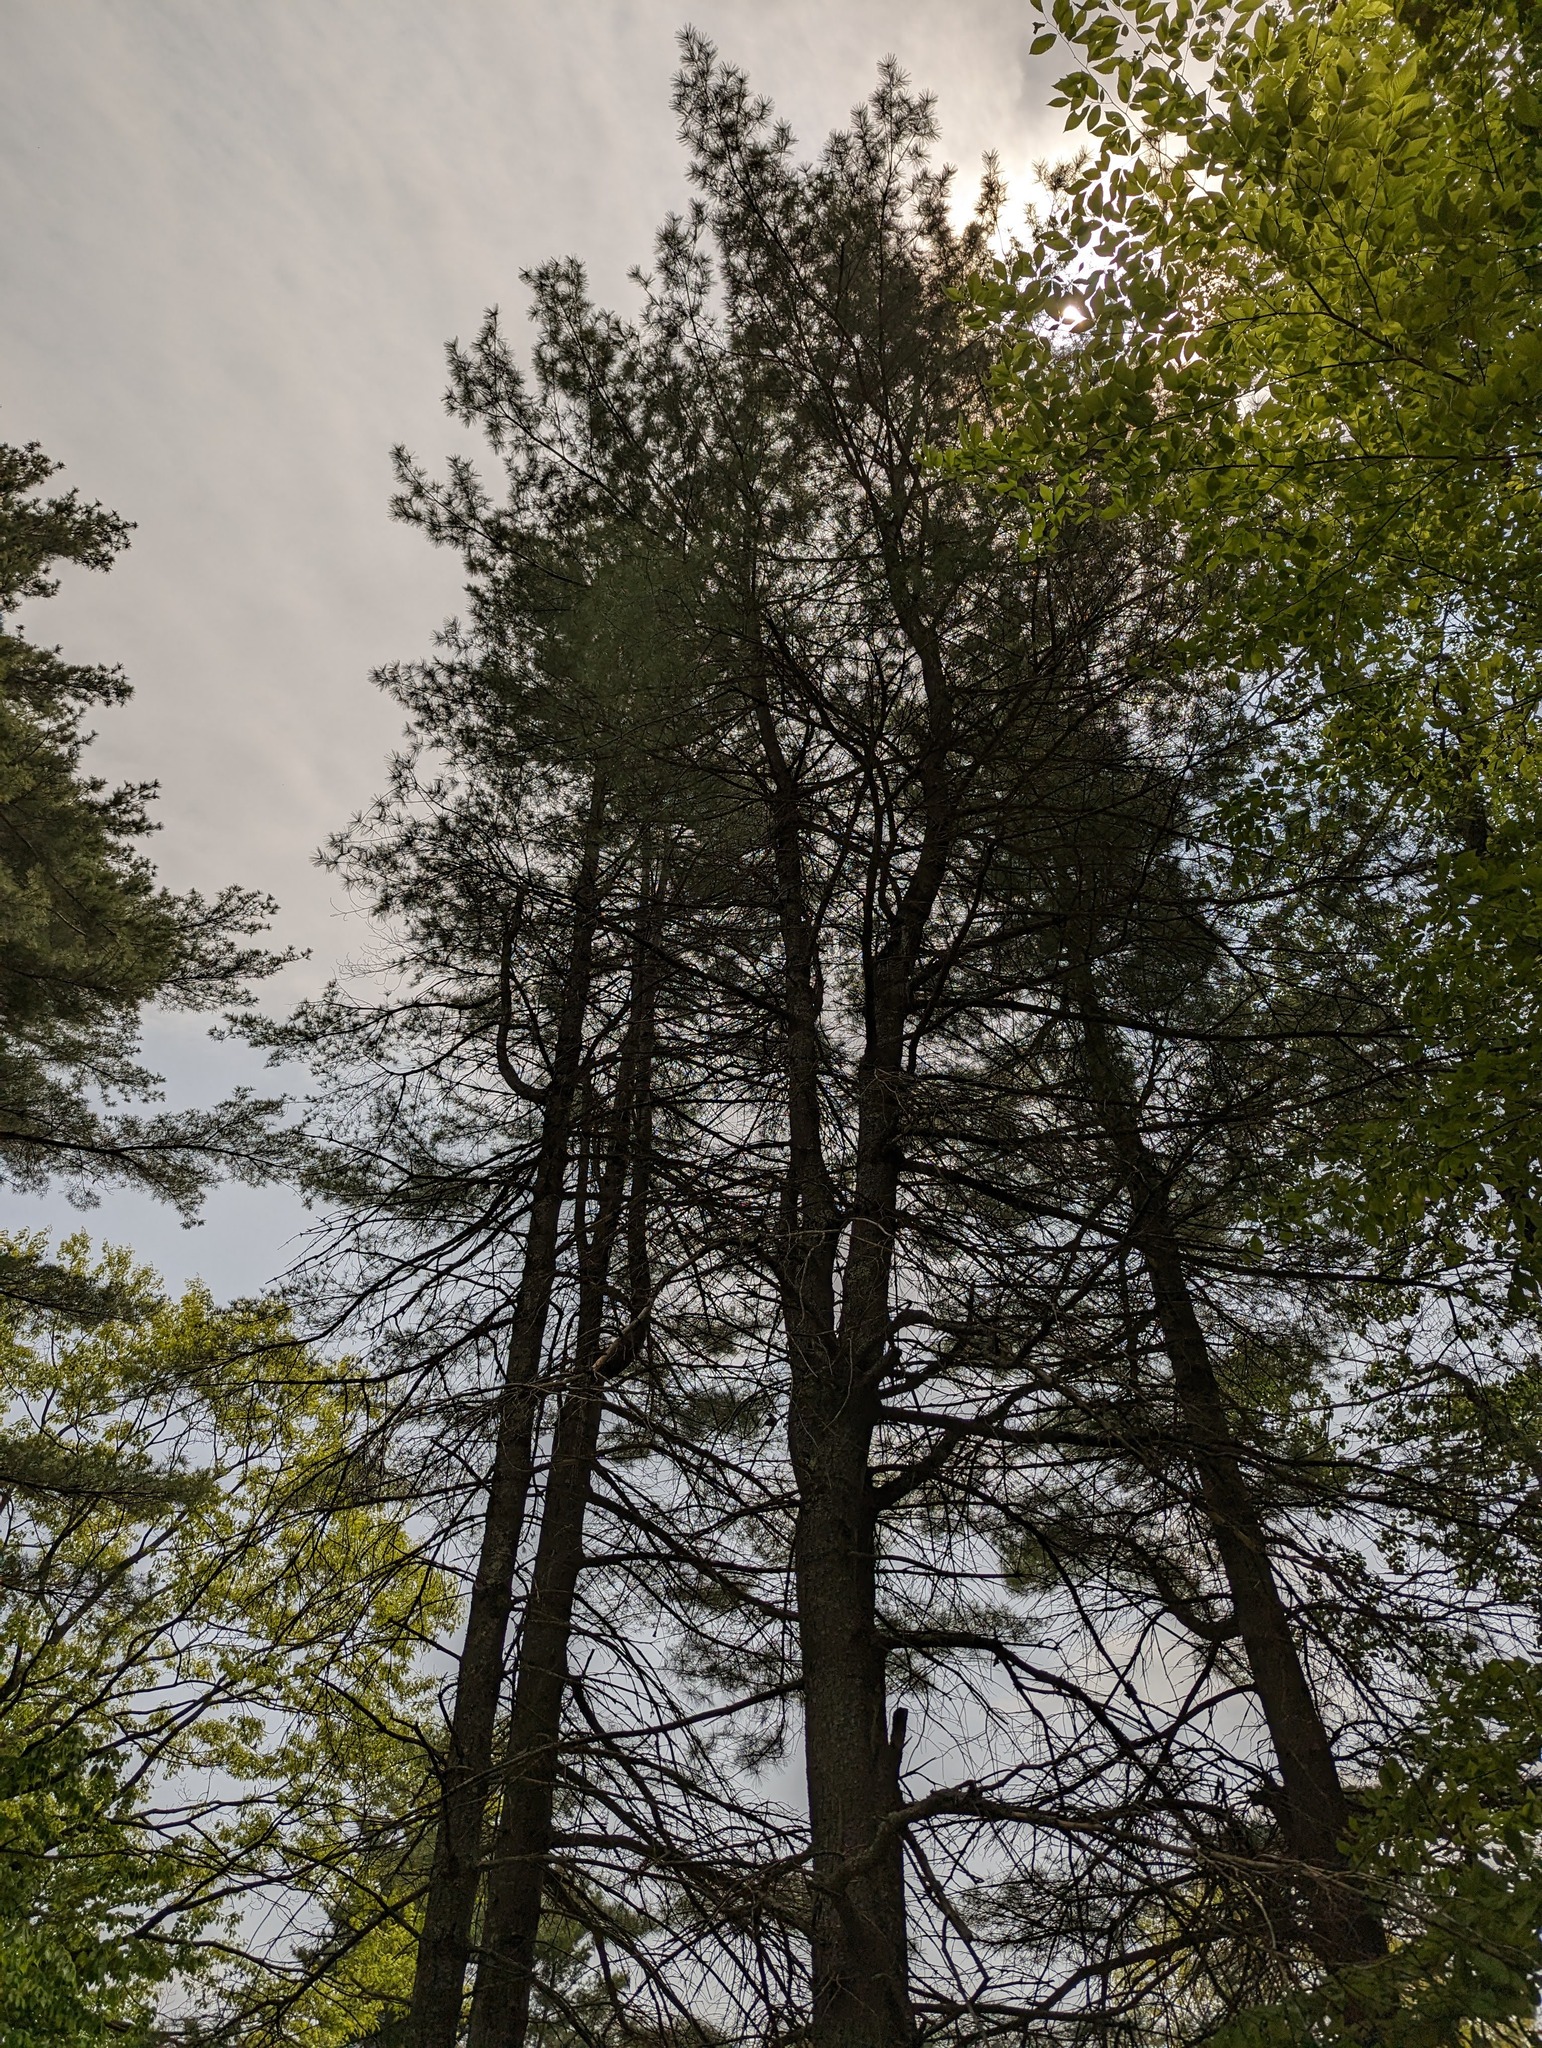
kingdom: Plantae
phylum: Tracheophyta
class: Pinopsida
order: Pinales
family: Pinaceae
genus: Pinus
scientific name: Pinus strobus
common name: Weymouth pine
